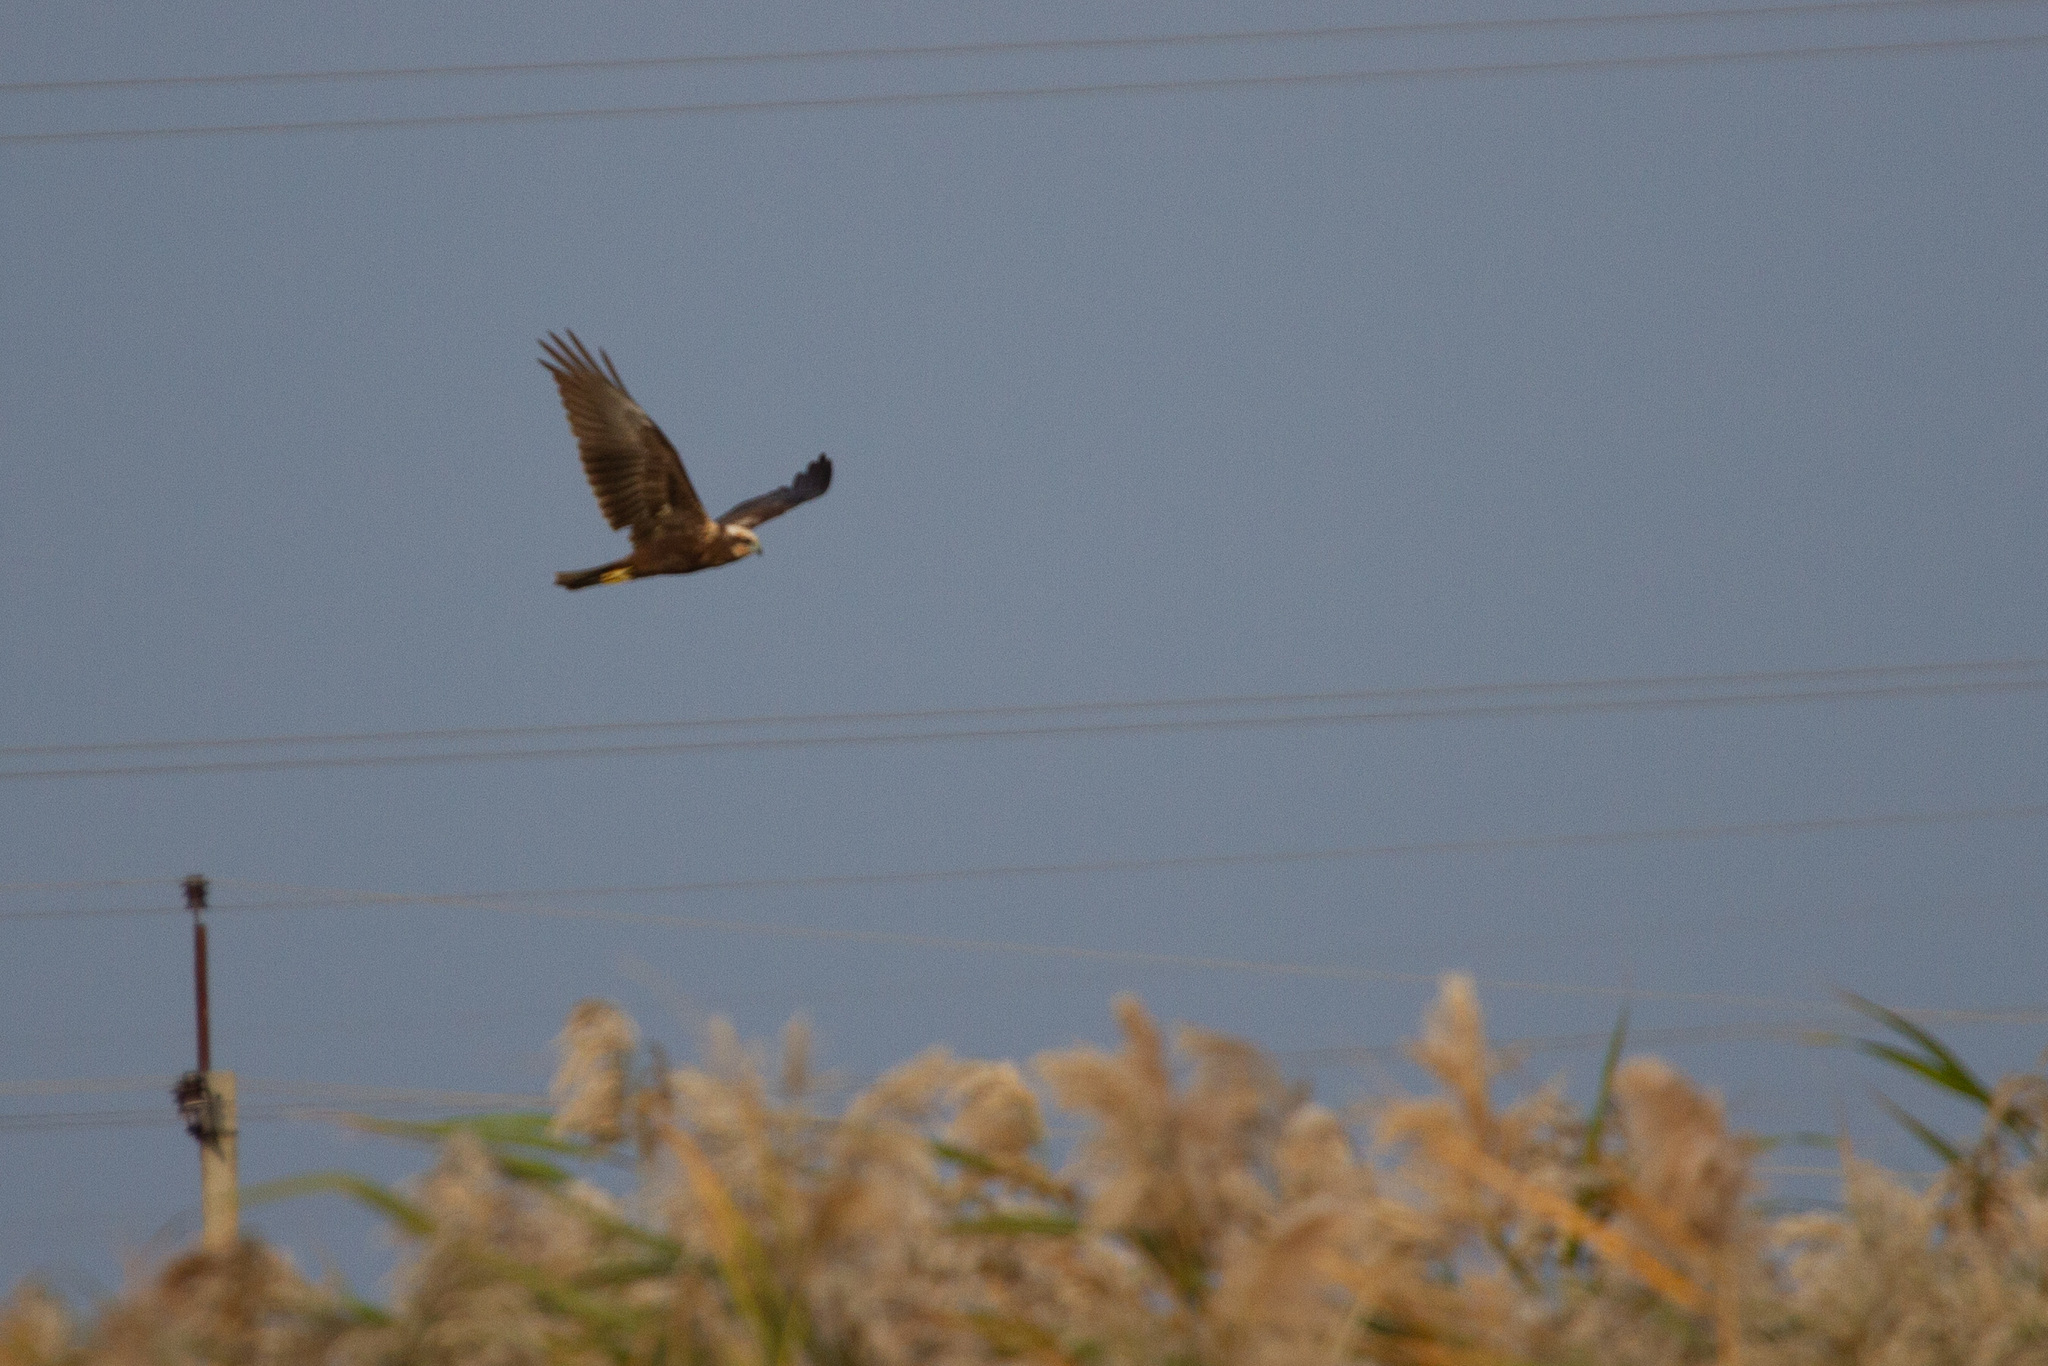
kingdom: Animalia
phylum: Chordata
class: Aves
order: Accipitriformes
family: Accipitridae
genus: Circus
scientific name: Circus aeruginosus
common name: Western marsh harrier
